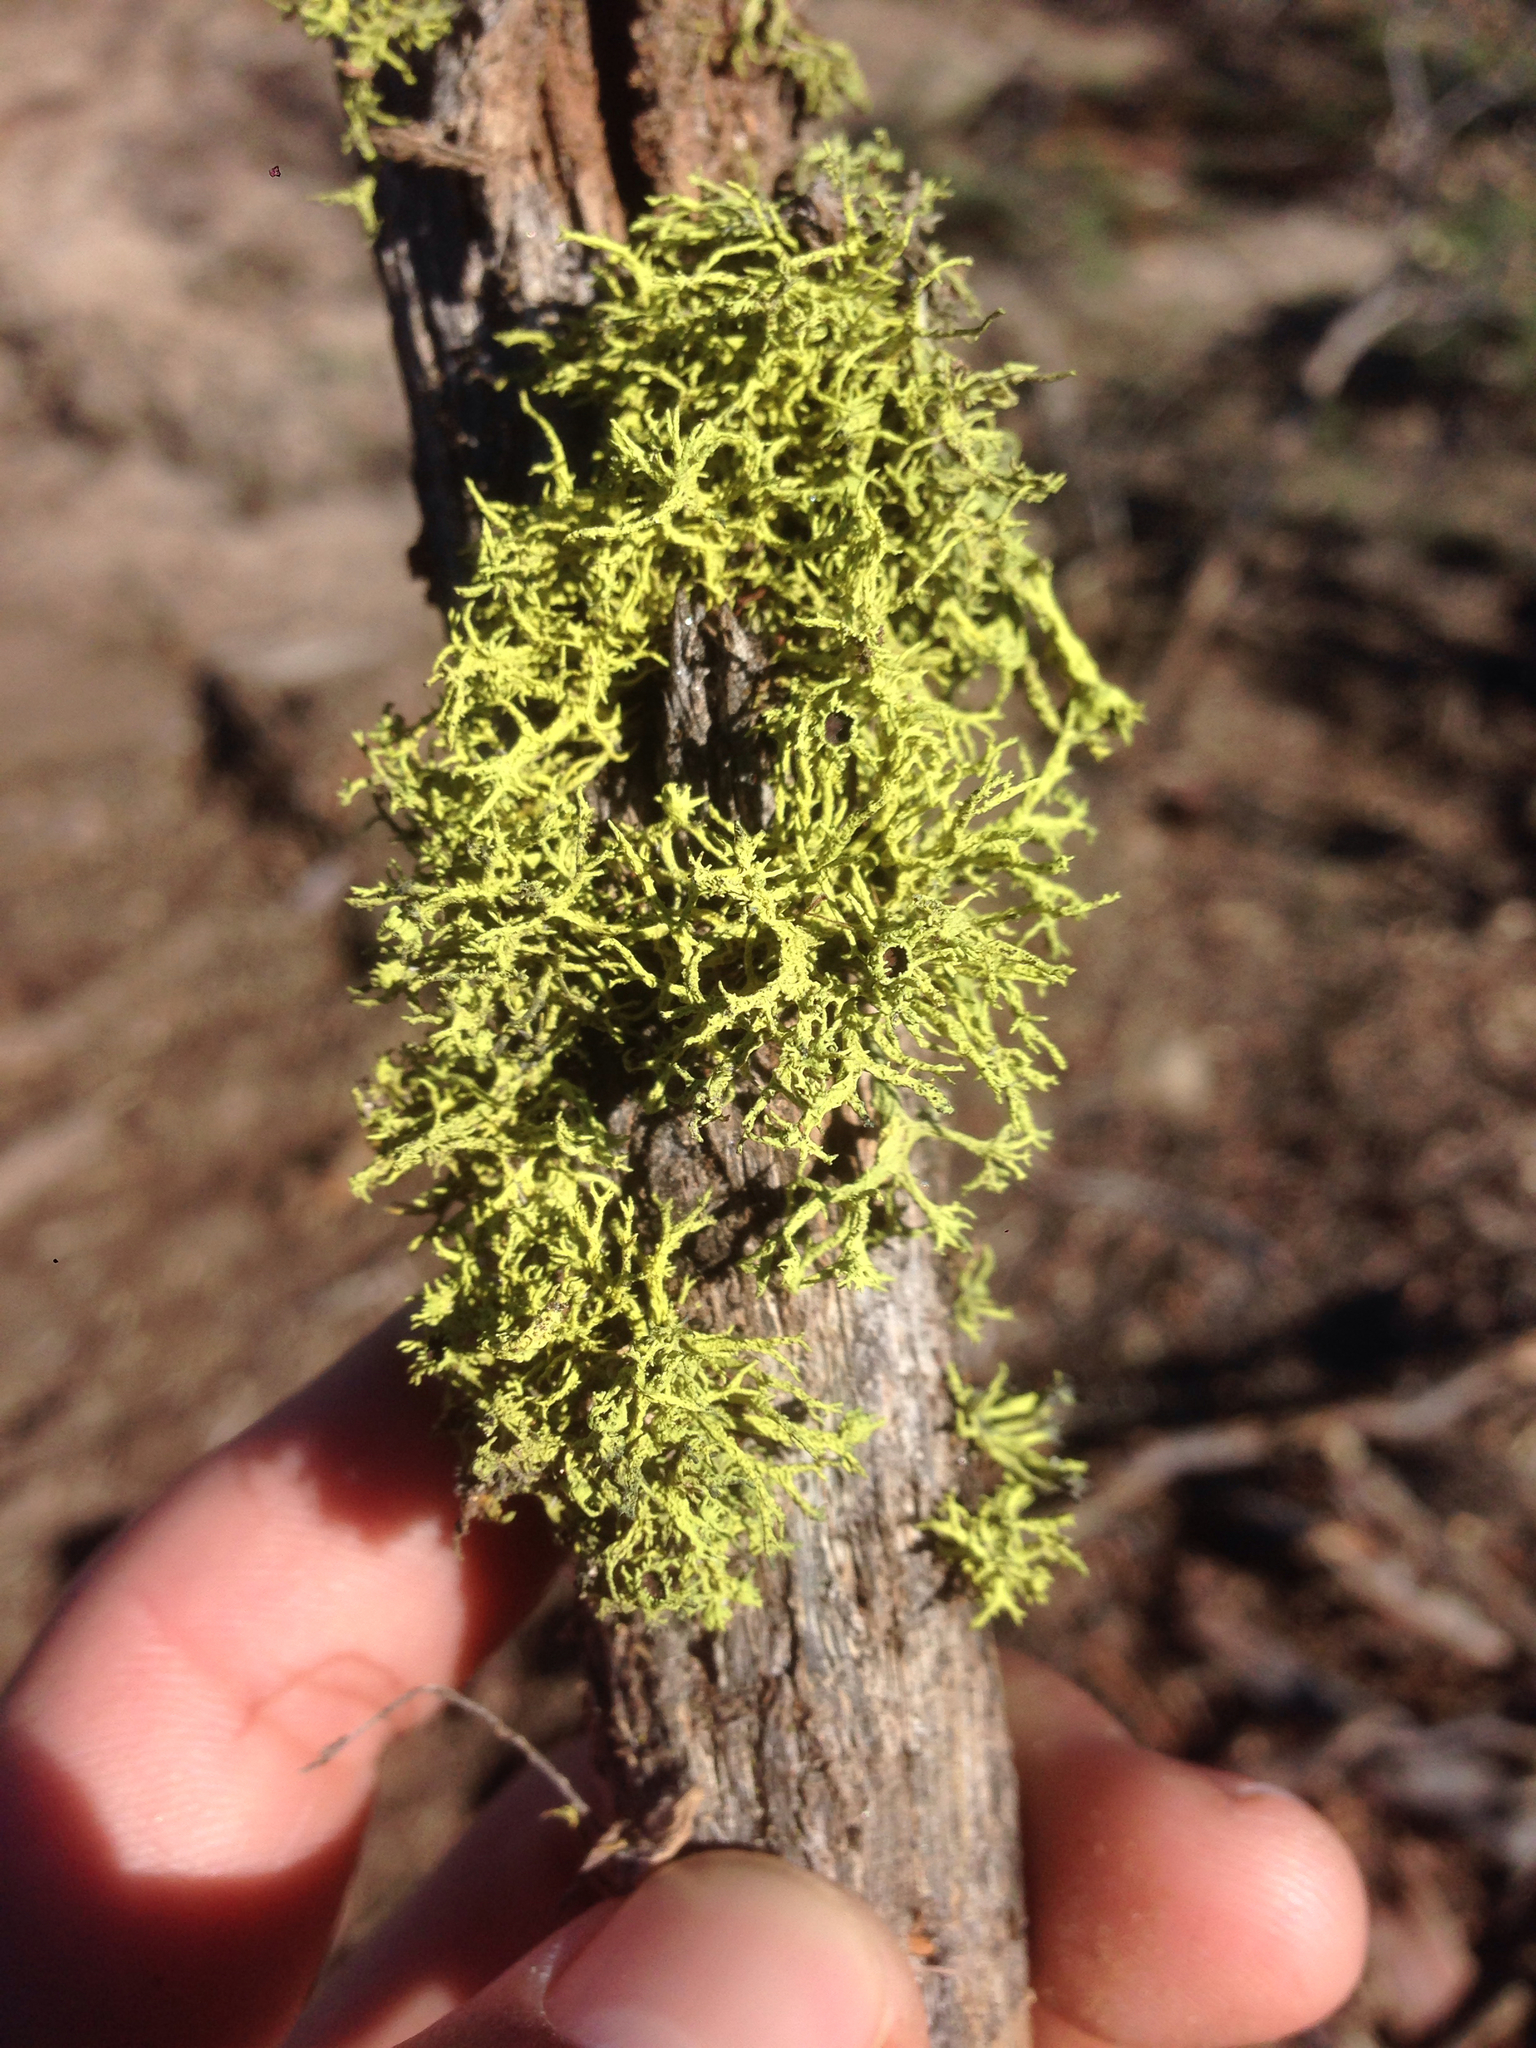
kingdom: Fungi
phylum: Ascomycota
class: Lecanoromycetes
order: Lecanorales
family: Parmeliaceae
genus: Letharia
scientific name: Letharia columbiana
